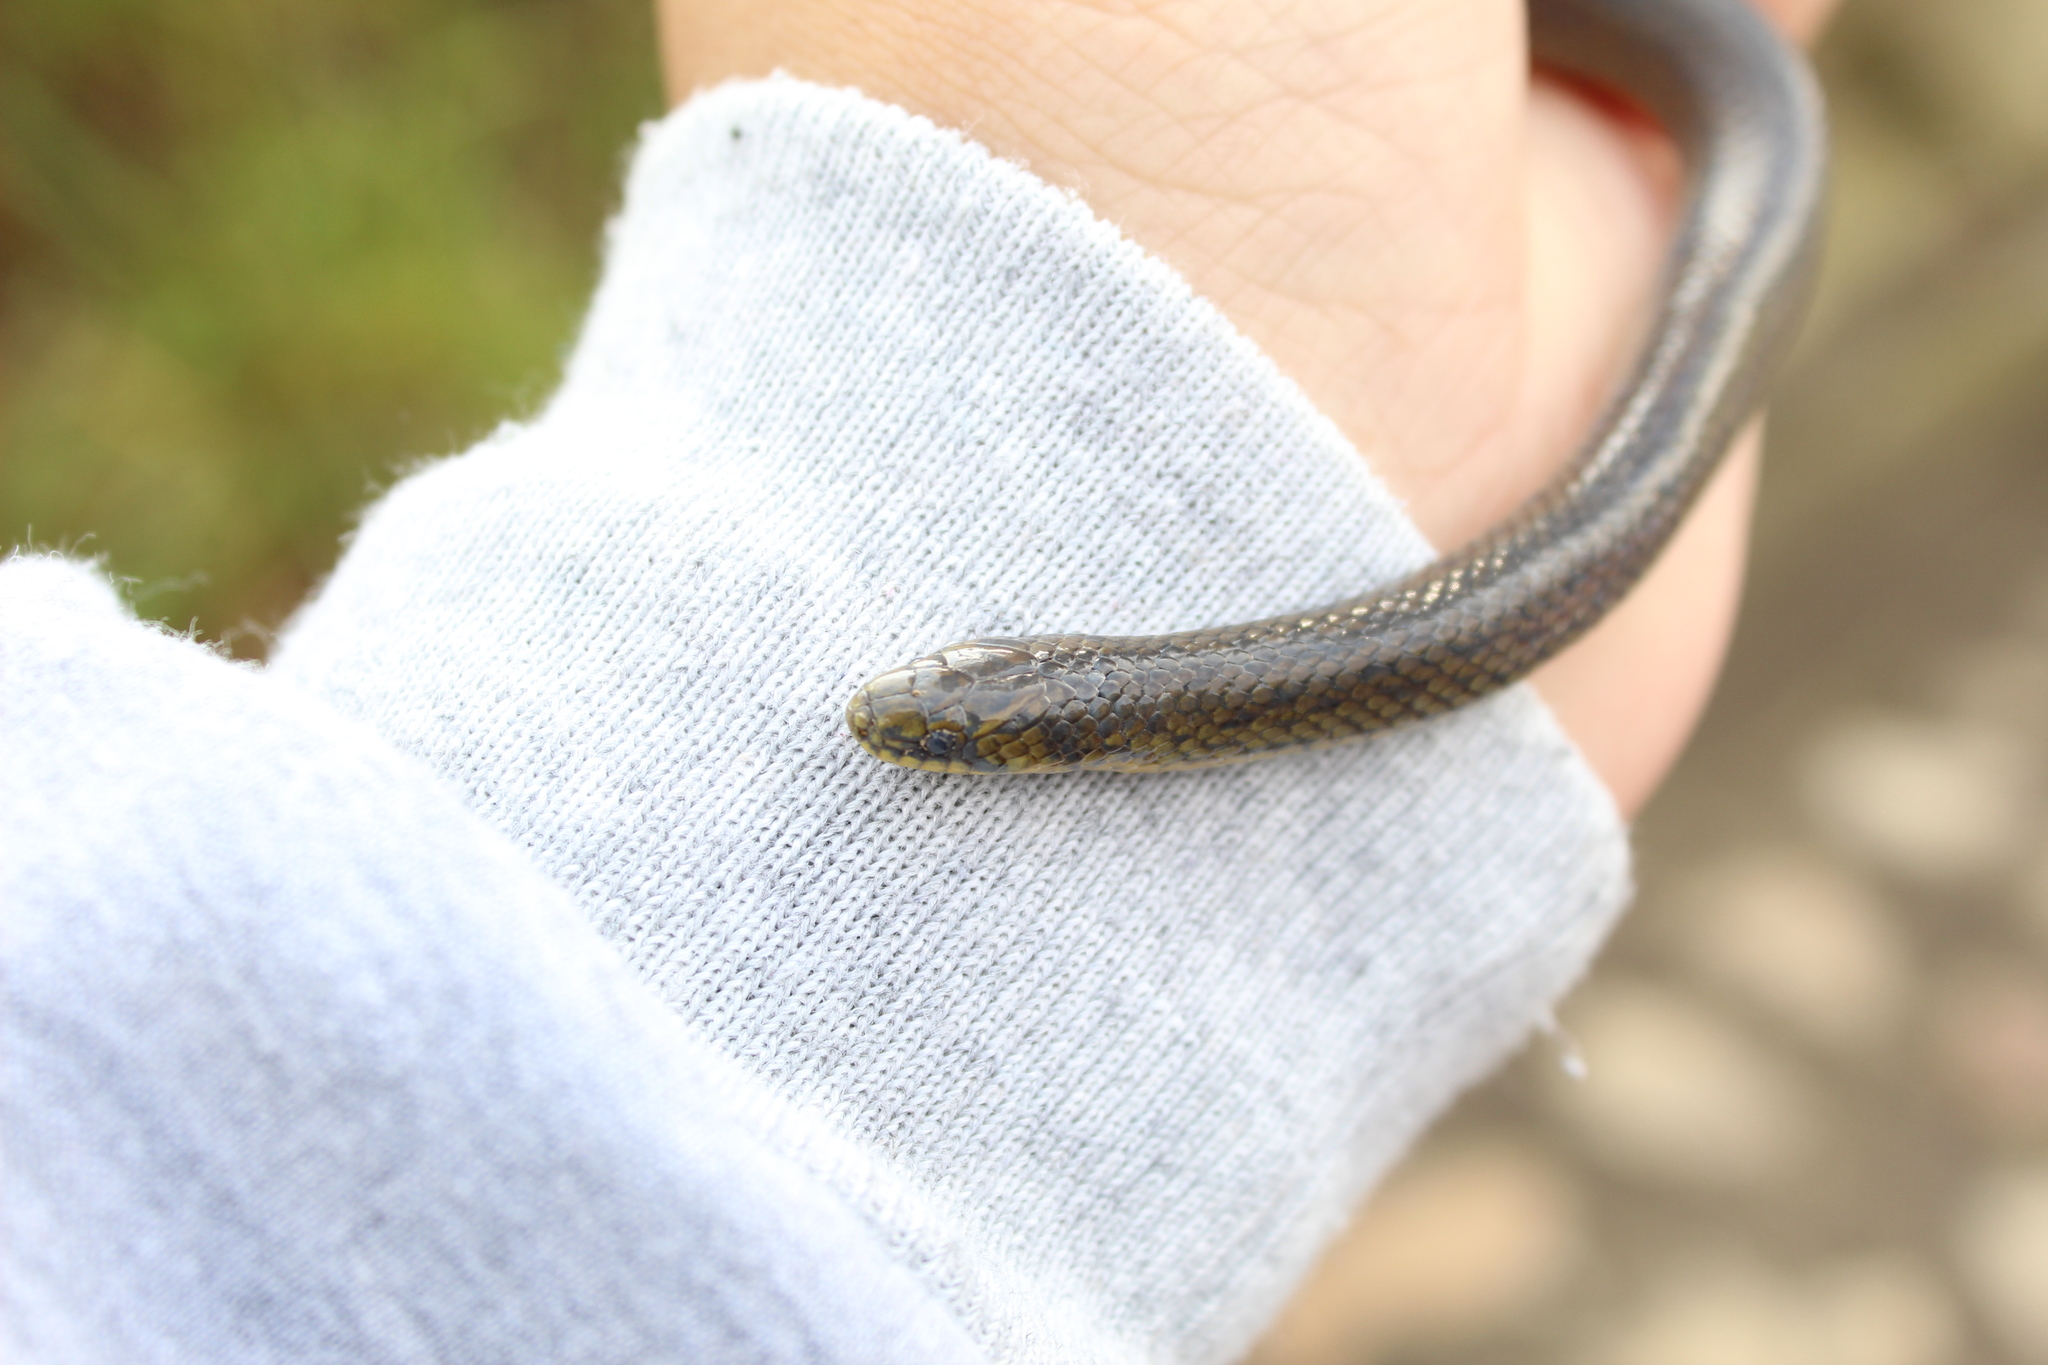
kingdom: Animalia
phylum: Chordata
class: Squamata
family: Colubridae
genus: Atractus
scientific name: Atractus crassicaudatus
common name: Thickhead ground snake
